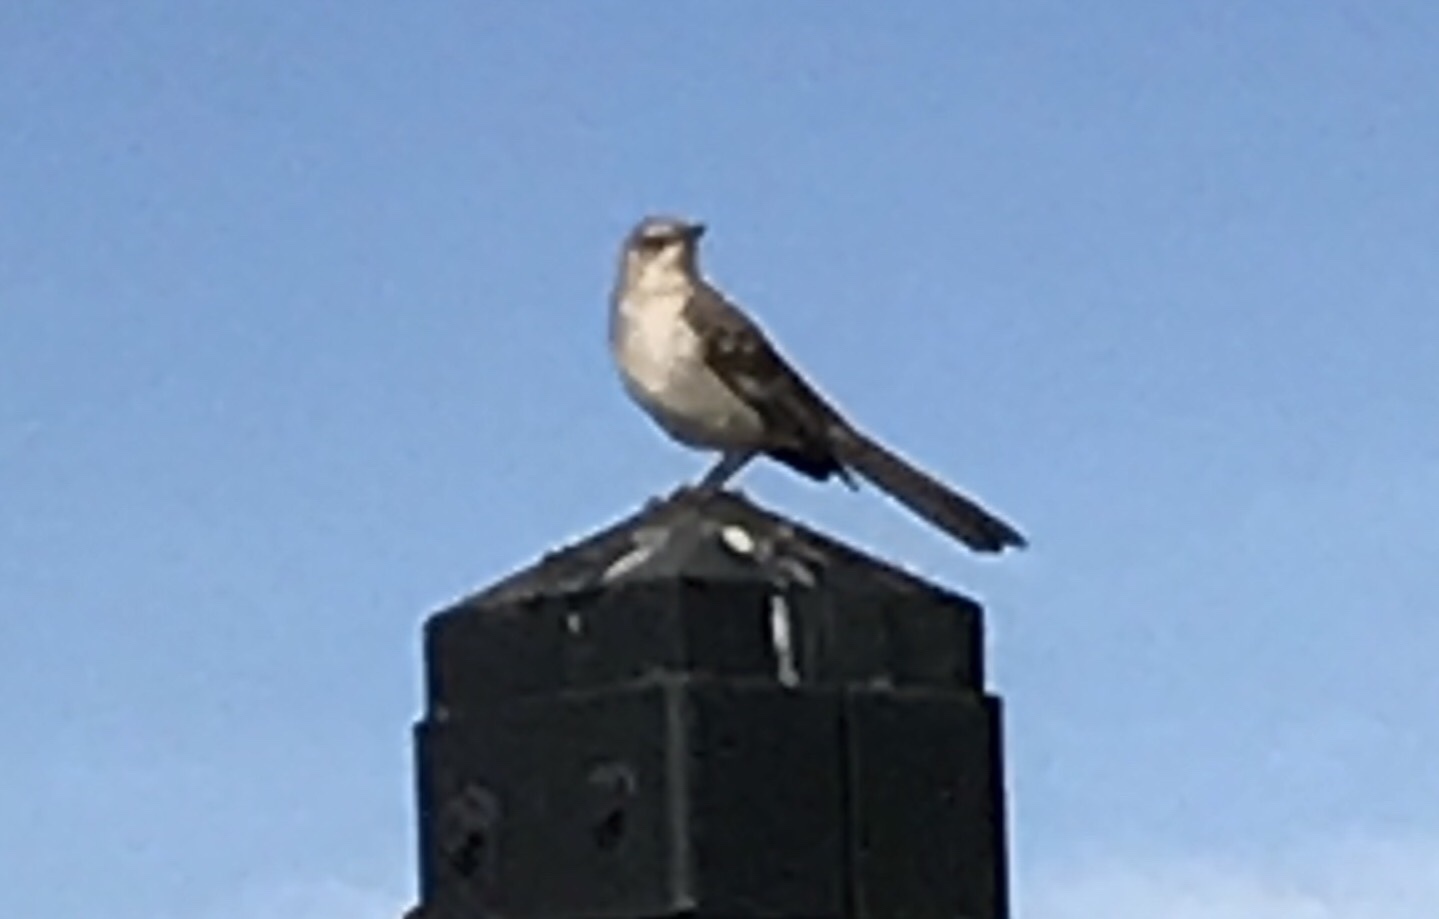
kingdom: Animalia
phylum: Chordata
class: Aves
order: Passeriformes
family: Mimidae
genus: Mimus
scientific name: Mimus polyglottos
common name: Northern mockingbird
